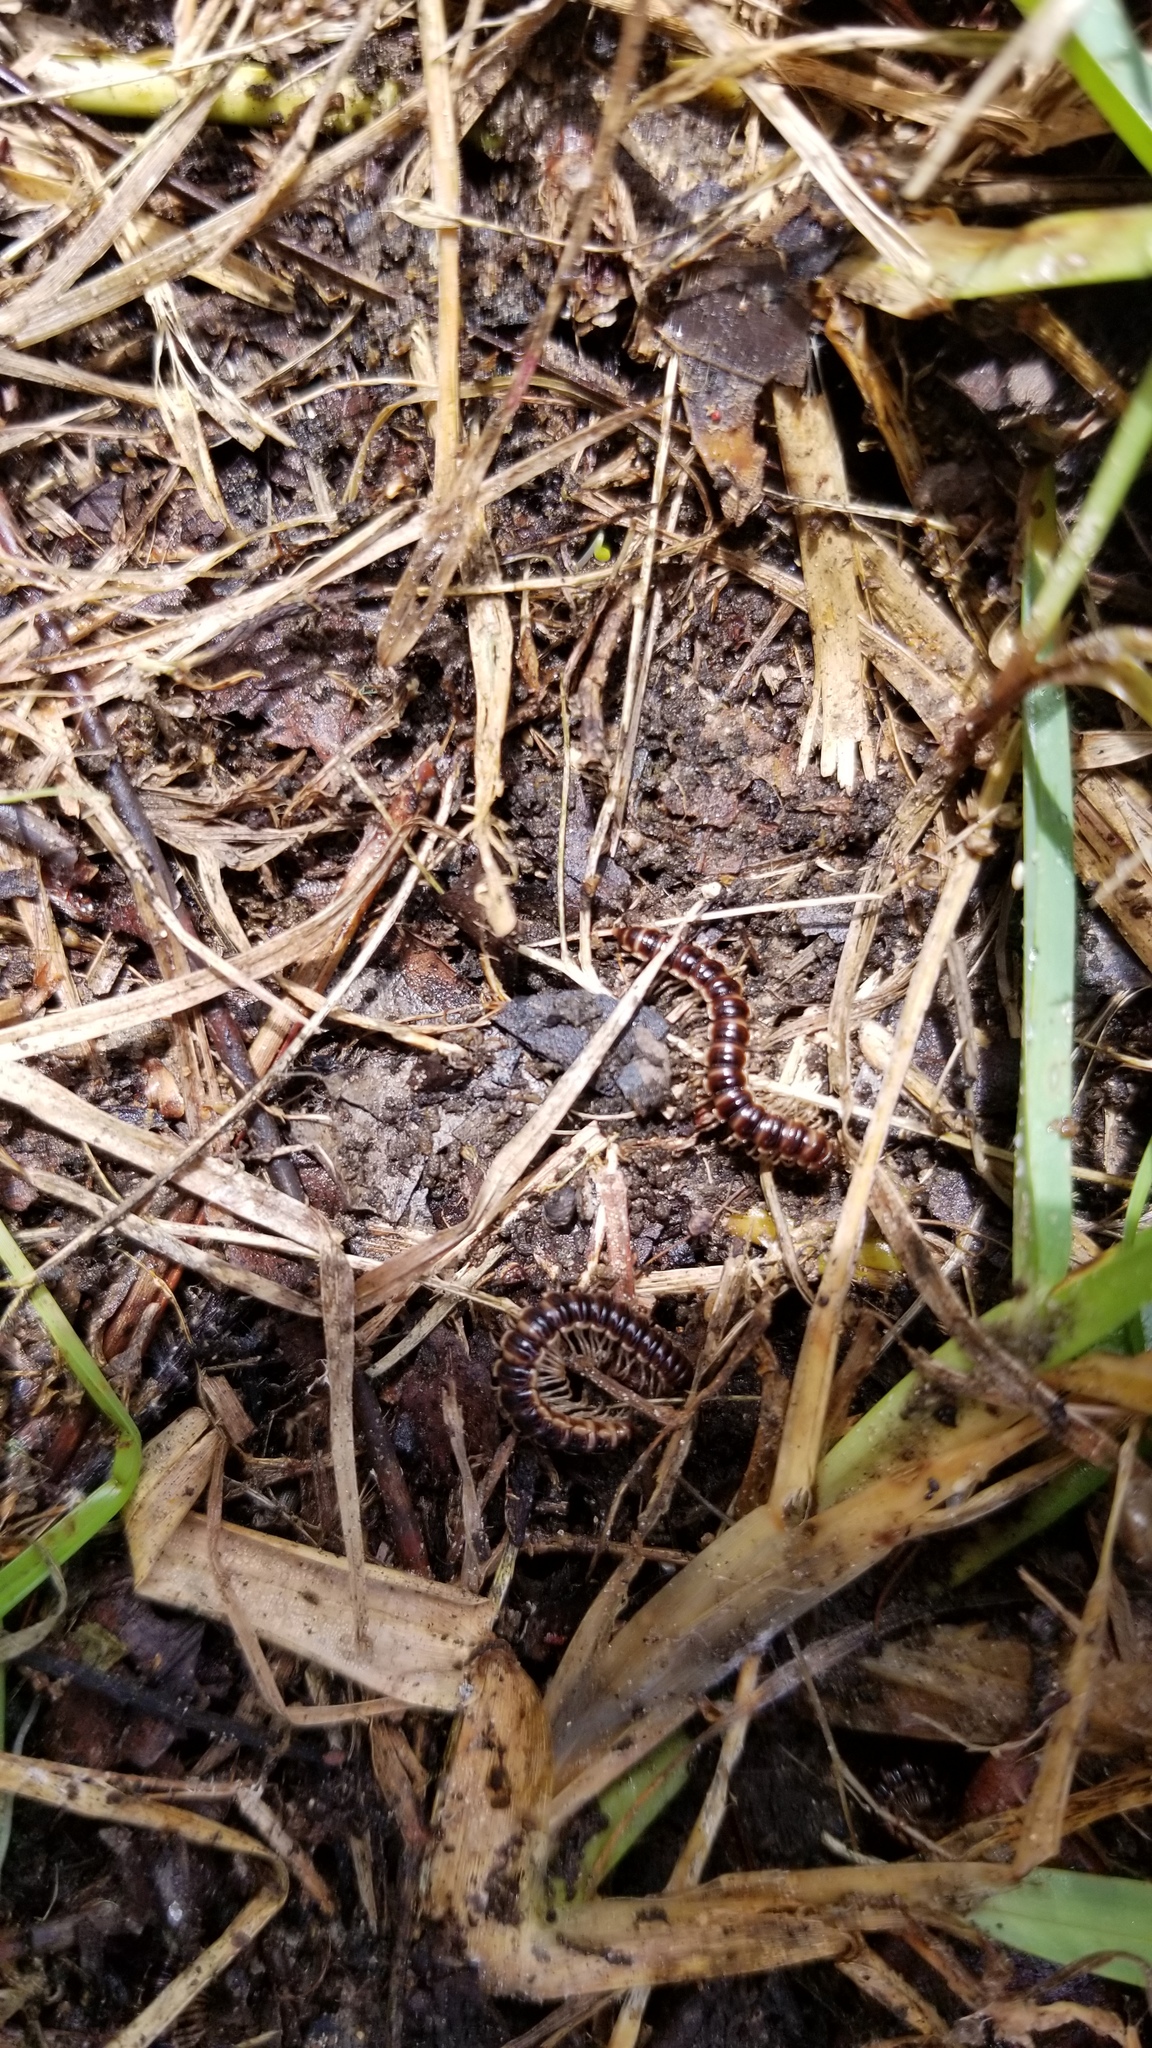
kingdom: Animalia
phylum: Arthropoda
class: Diplopoda
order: Polydesmida
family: Paradoxosomatidae
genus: Oxidus
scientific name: Oxidus gracilis
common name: Greenhouse millipede
